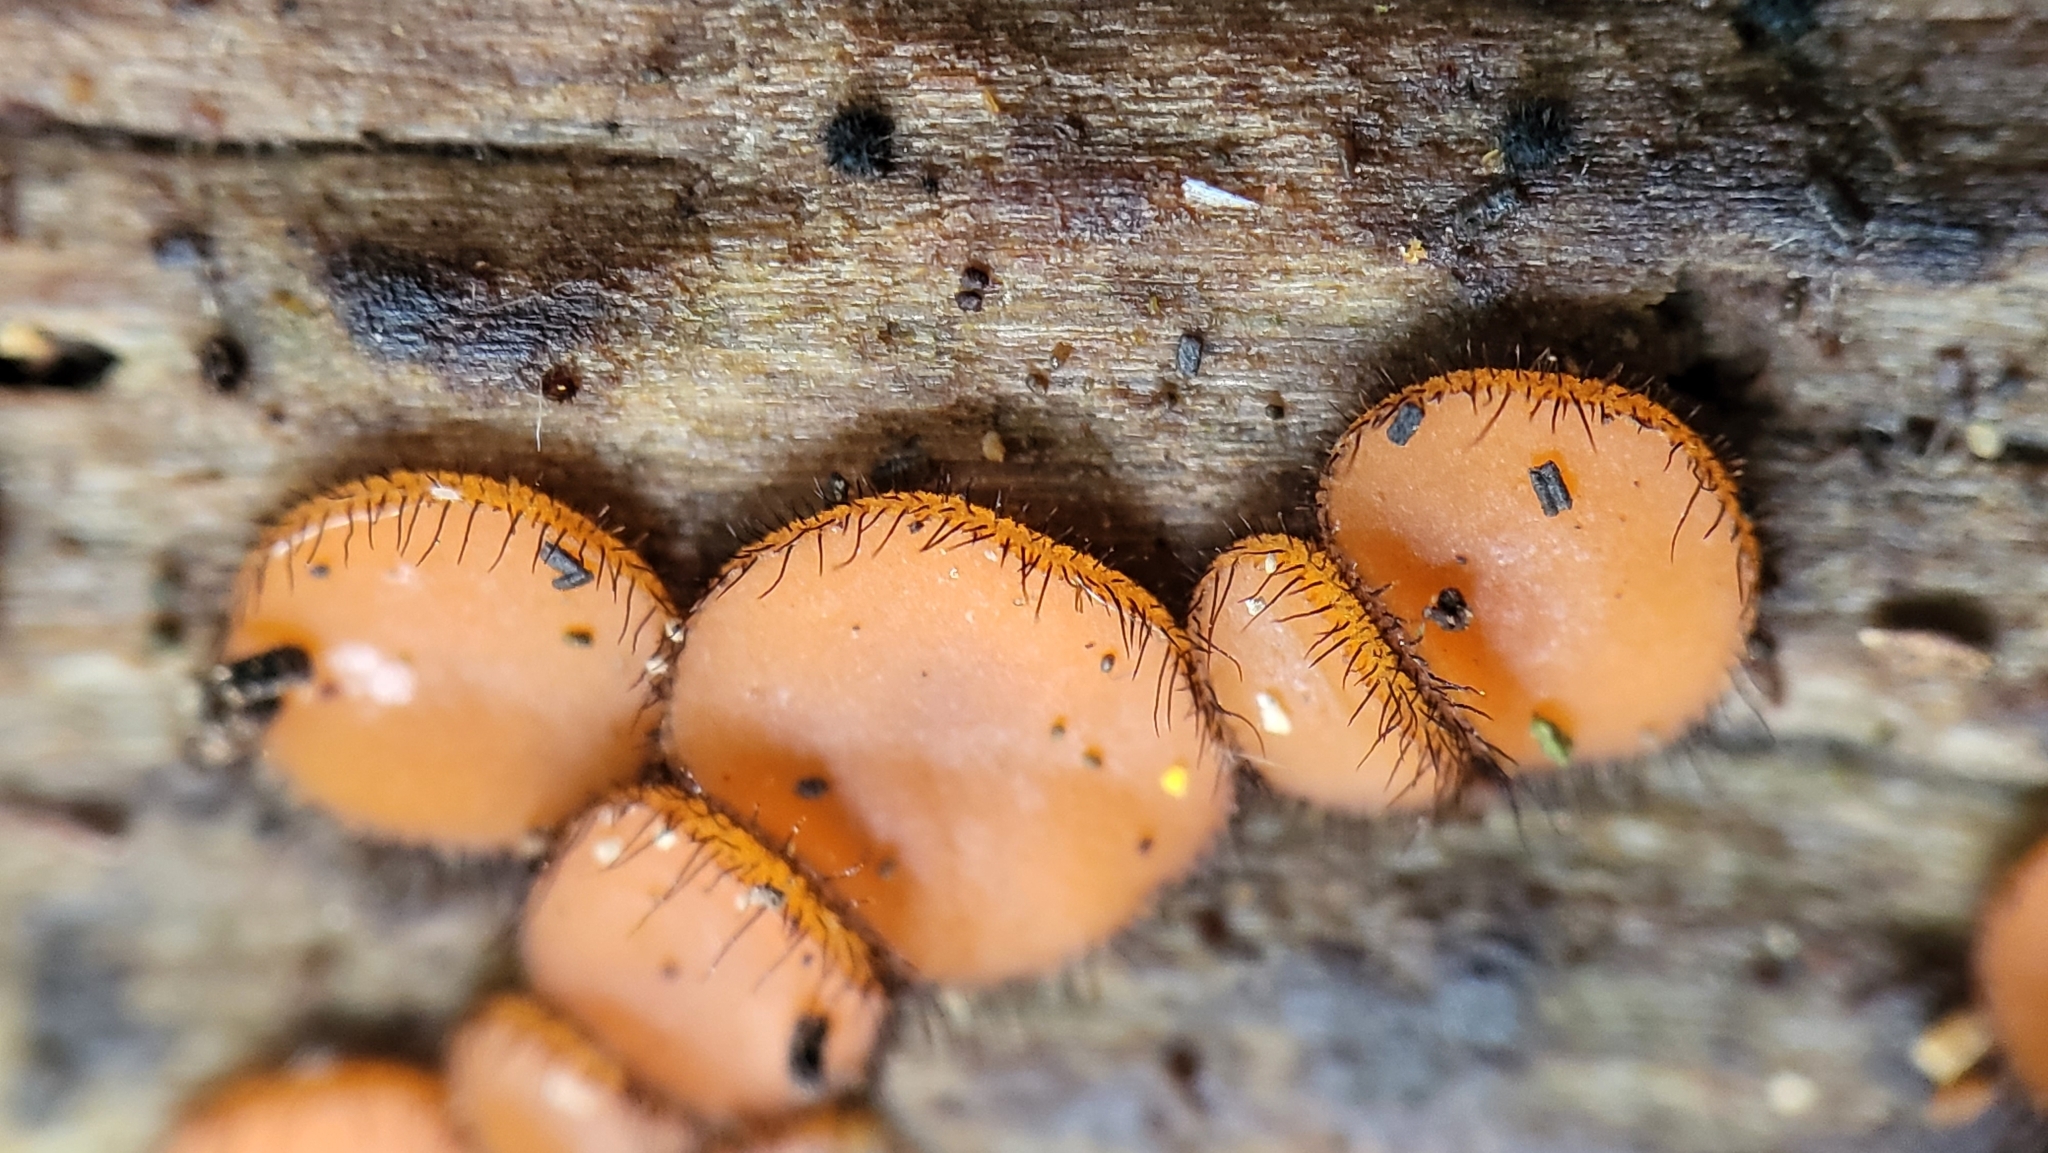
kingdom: Fungi
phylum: Ascomycota
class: Pezizomycetes
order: Pezizales
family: Pyronemataceae
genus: Scutellinia
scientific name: Scutellinia
